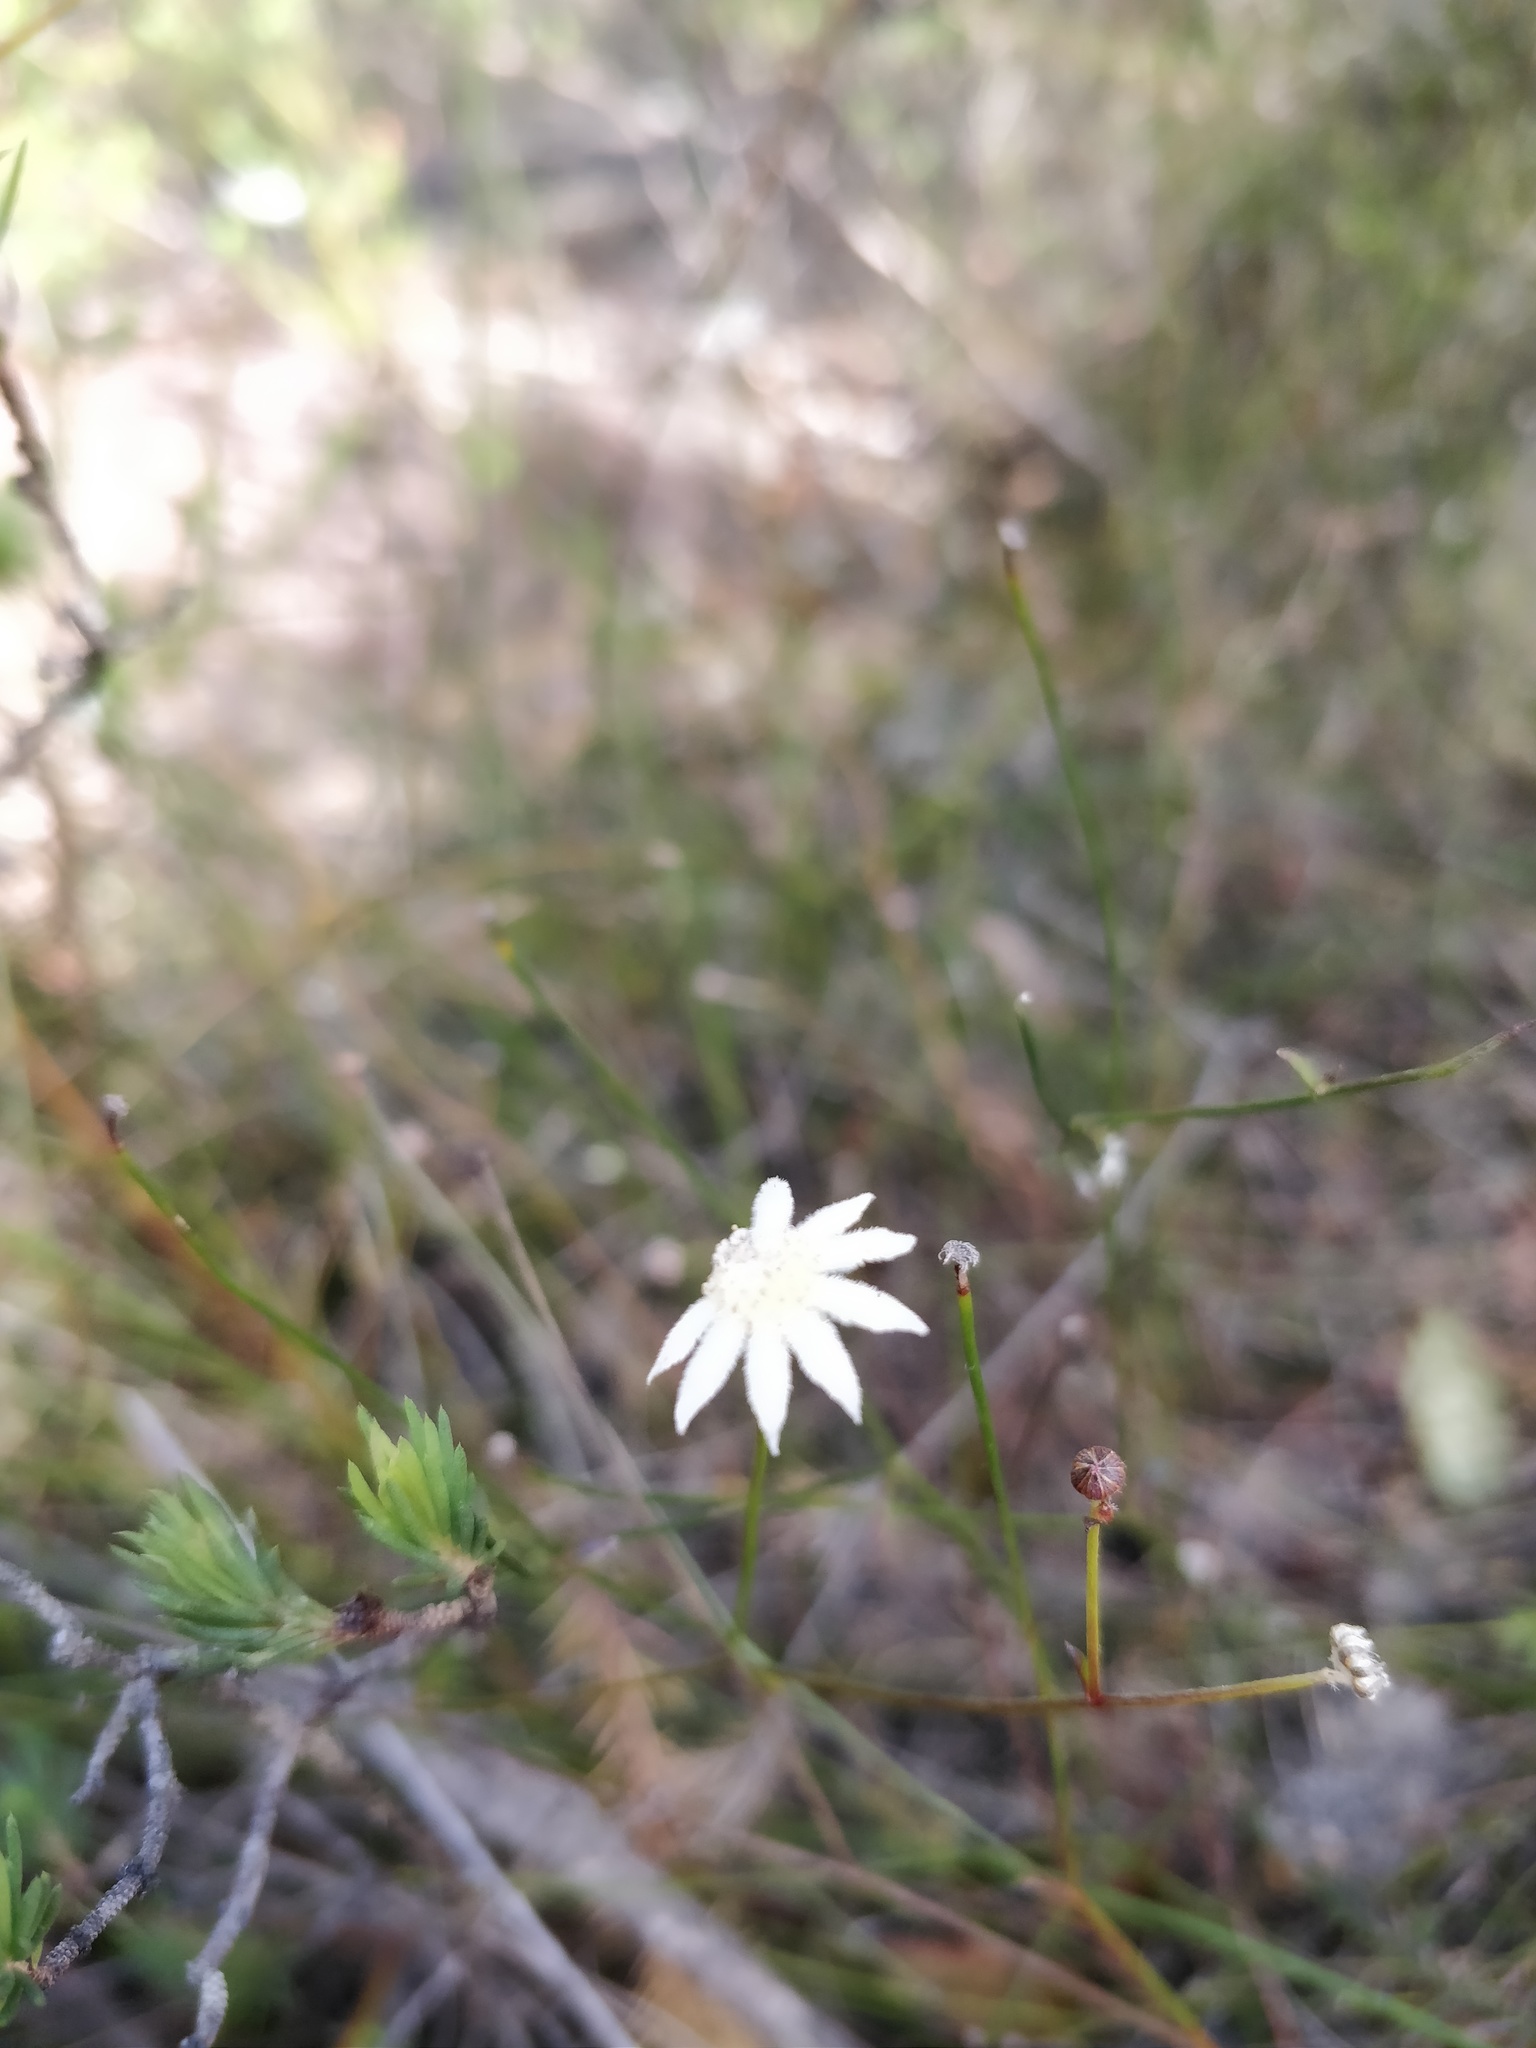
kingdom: Plantae
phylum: Tracheophyta
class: Magnoliopsida
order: Apiales
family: Apiaceae
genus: Actinotus
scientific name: Actinotus minor
